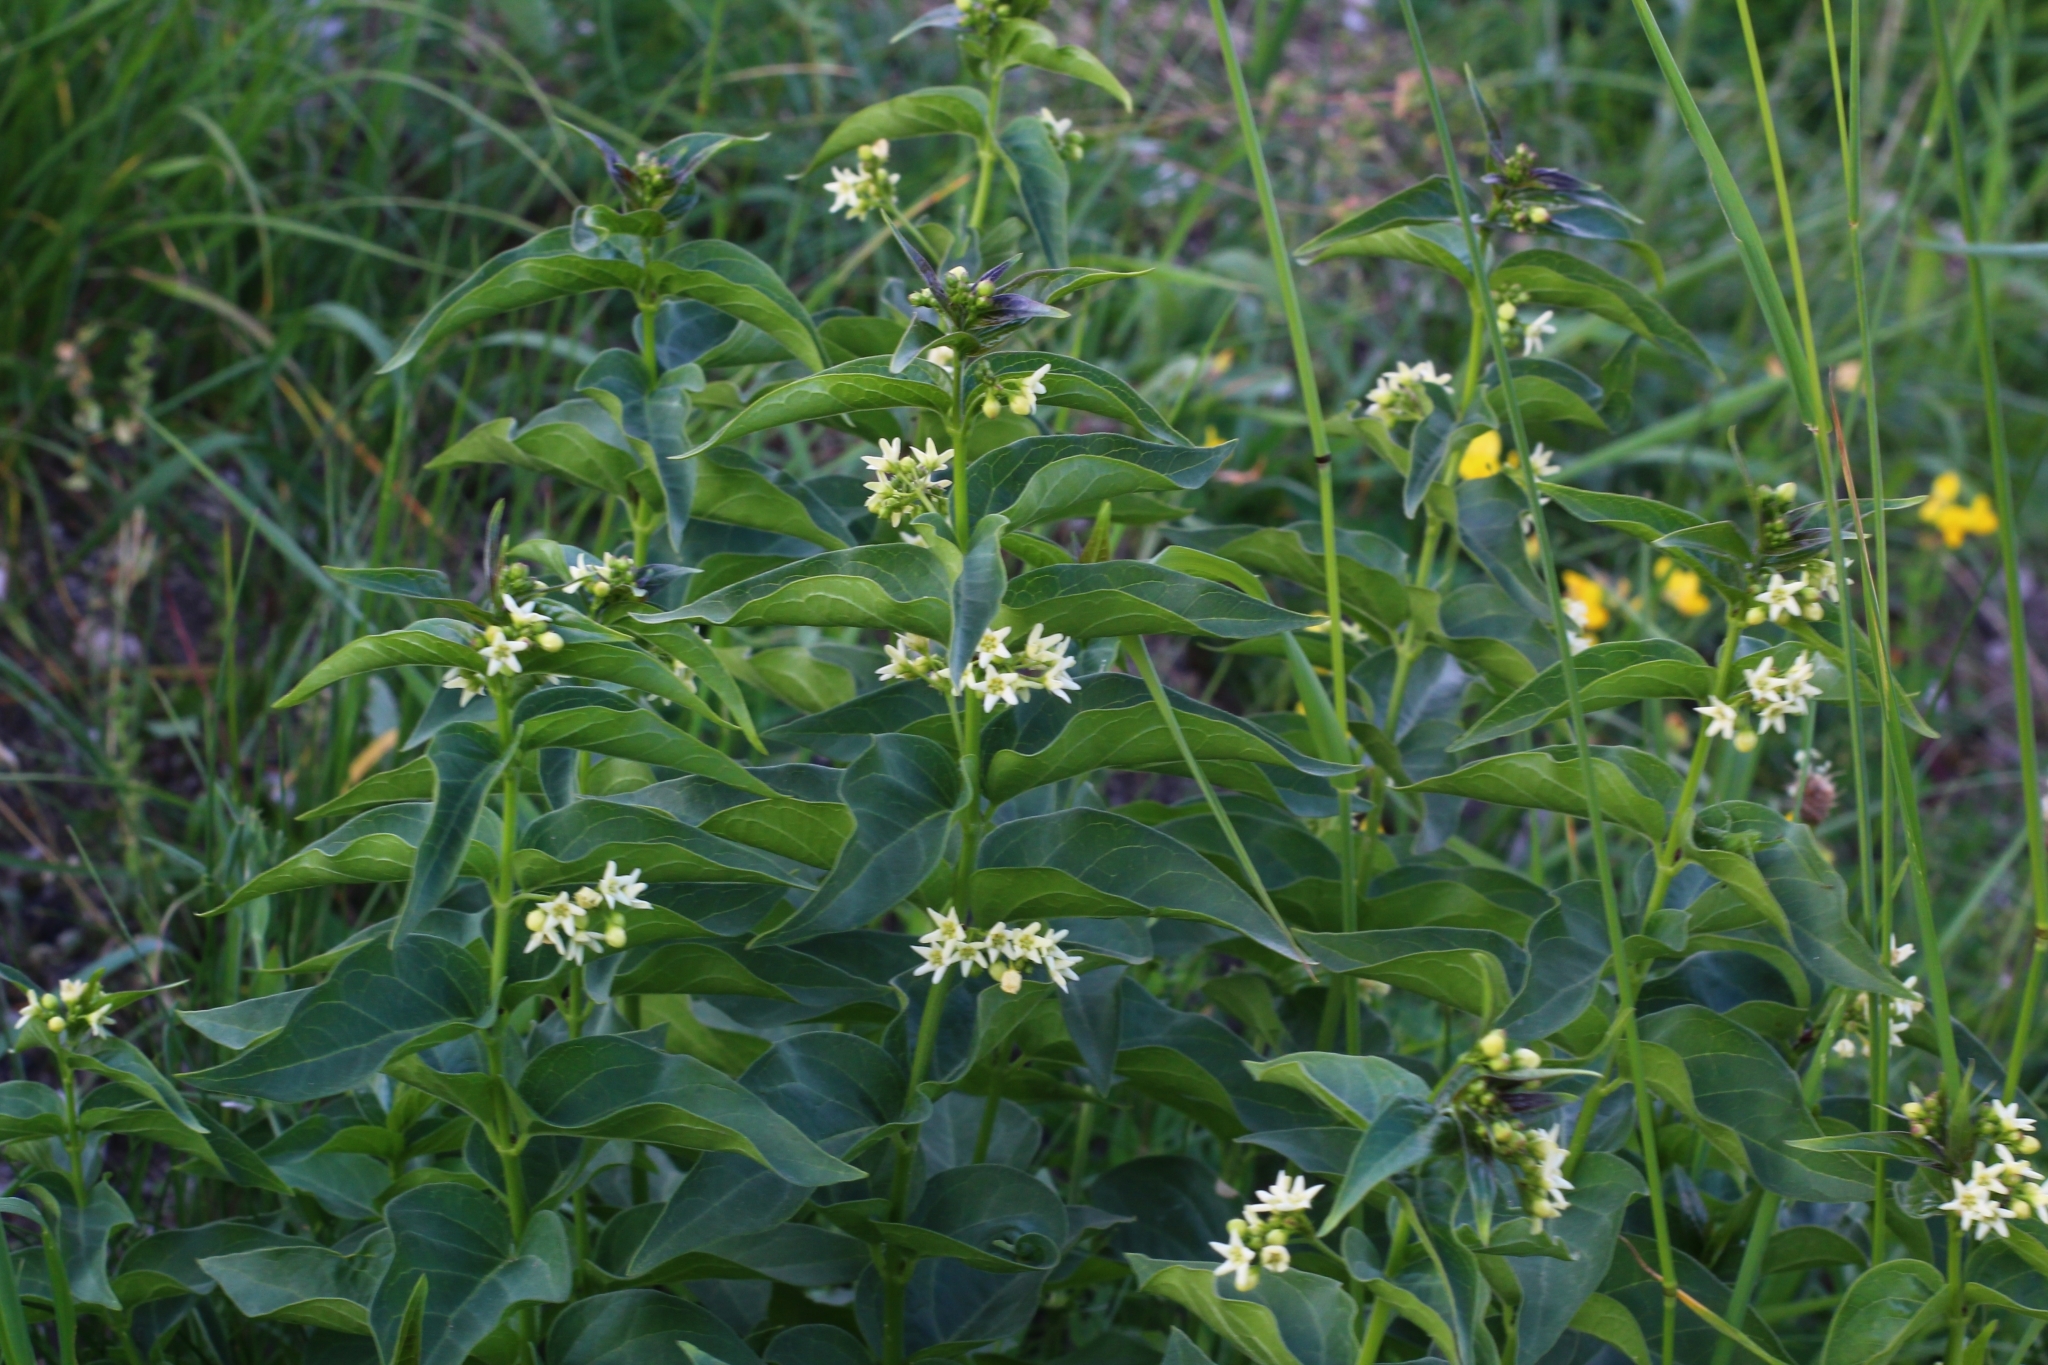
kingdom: Plantae
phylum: Tracheophyta
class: Magnoliopsida
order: Gentianales
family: Apocynaceae
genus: Vincetoxicum
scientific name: Vincetoxicum hirundinaria
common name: White swallowwort
